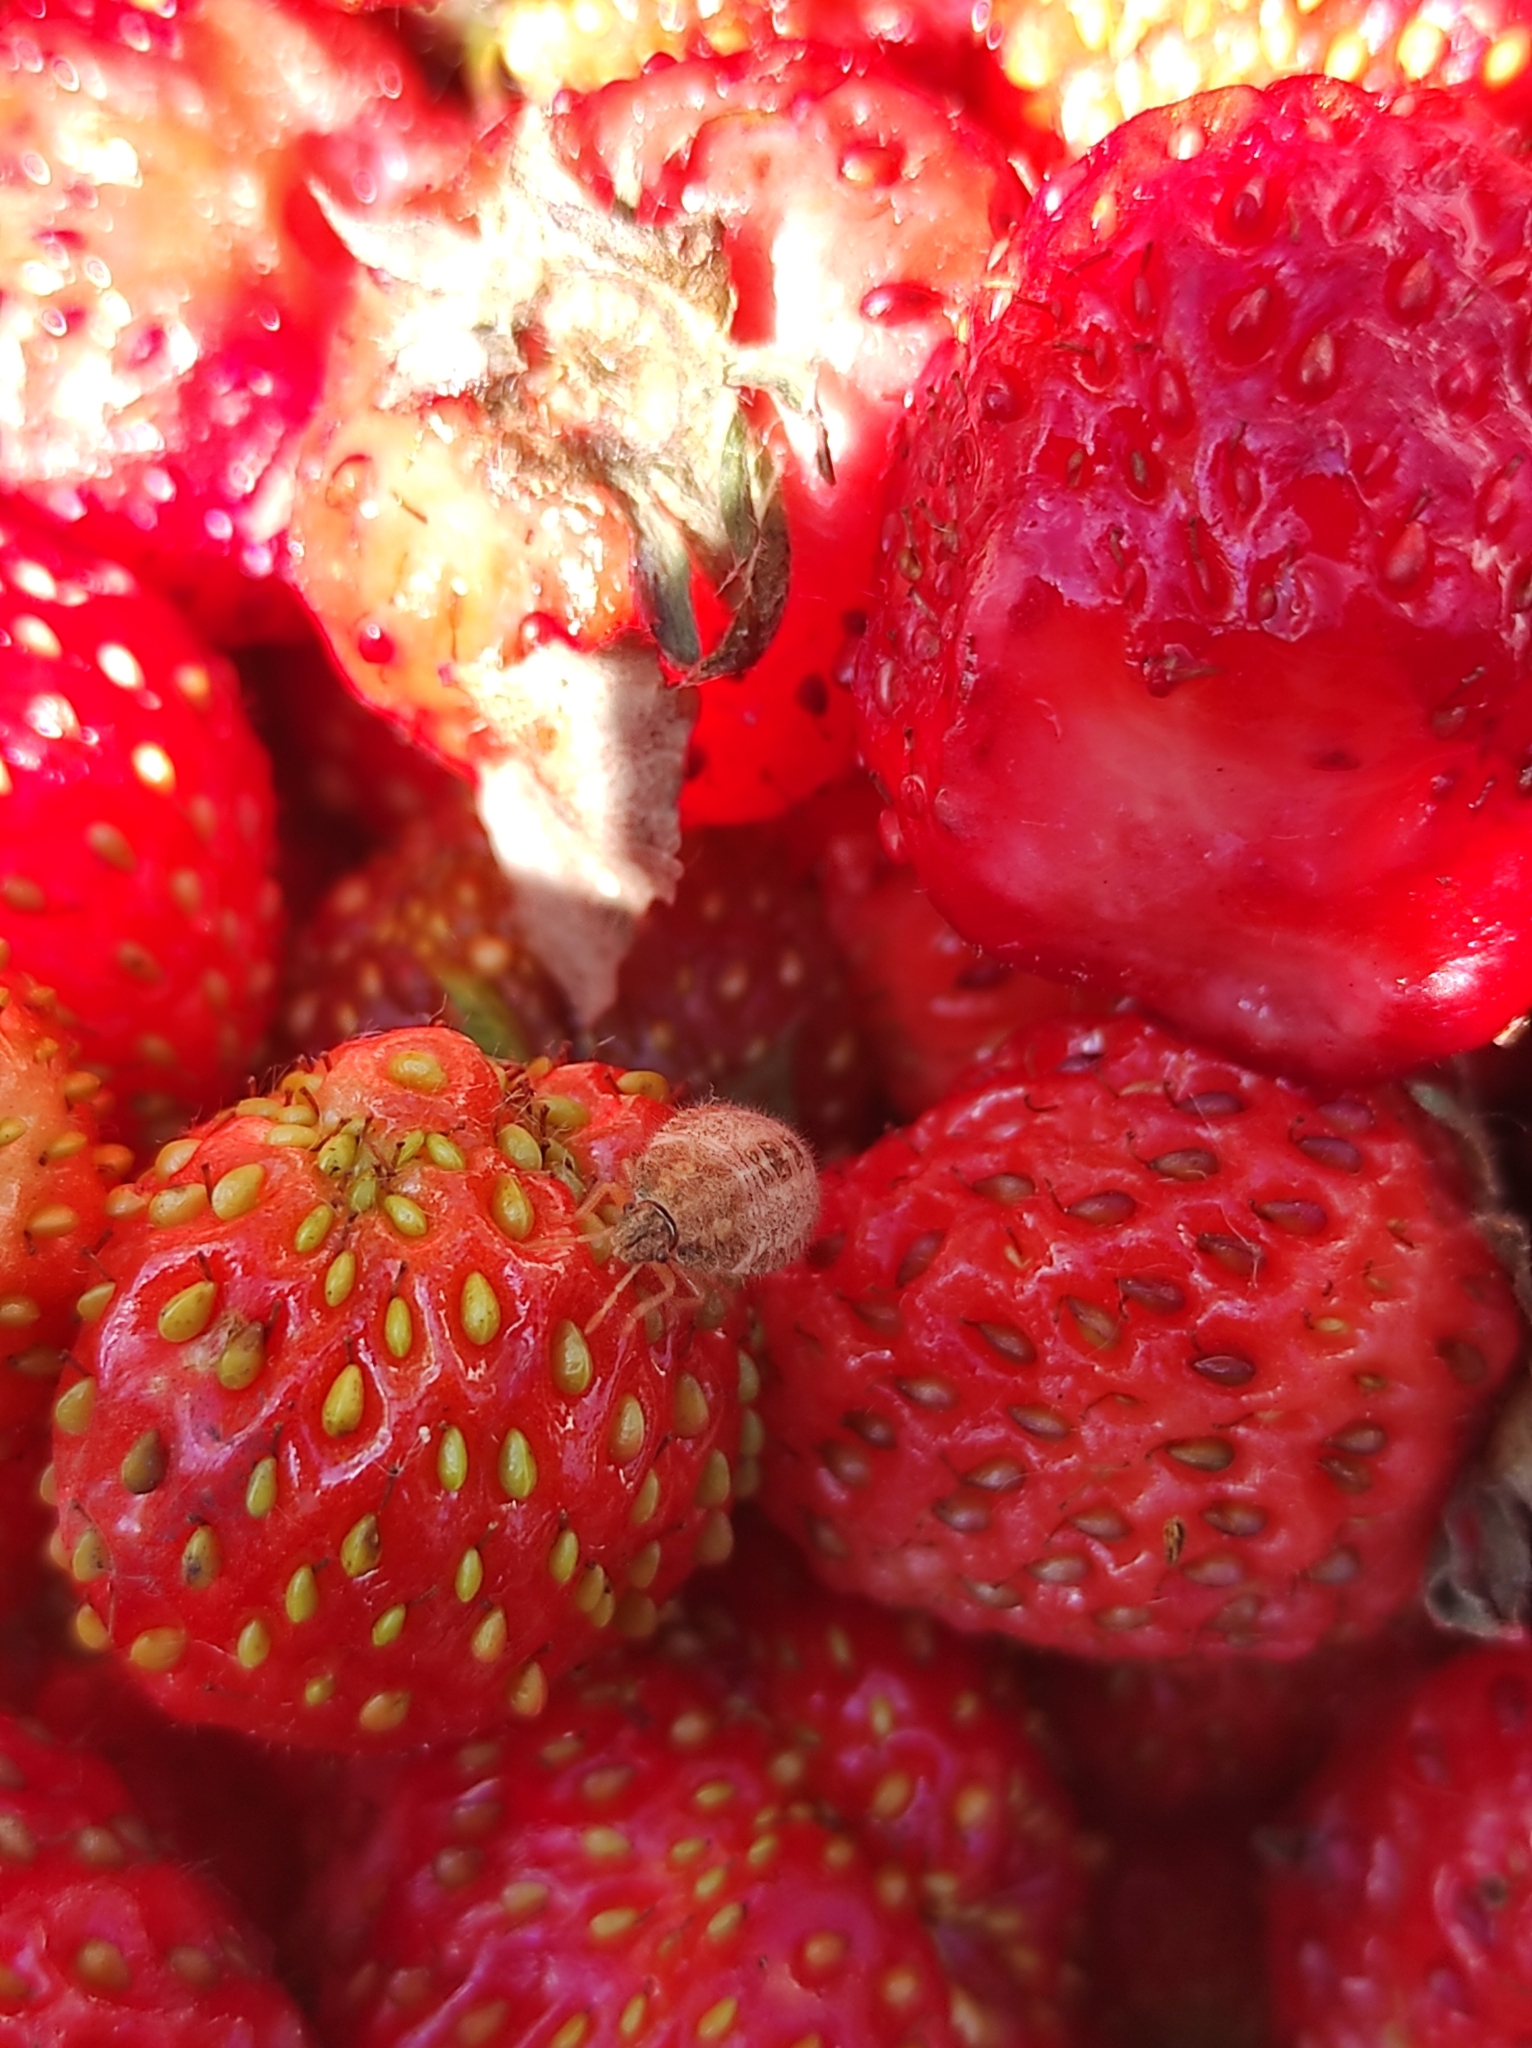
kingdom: Animalia
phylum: Arthropoda
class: Insecta
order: Hemiptera
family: Pentatomidae
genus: Dolycoris
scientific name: Dolycoris baccarum
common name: Sloe bug
